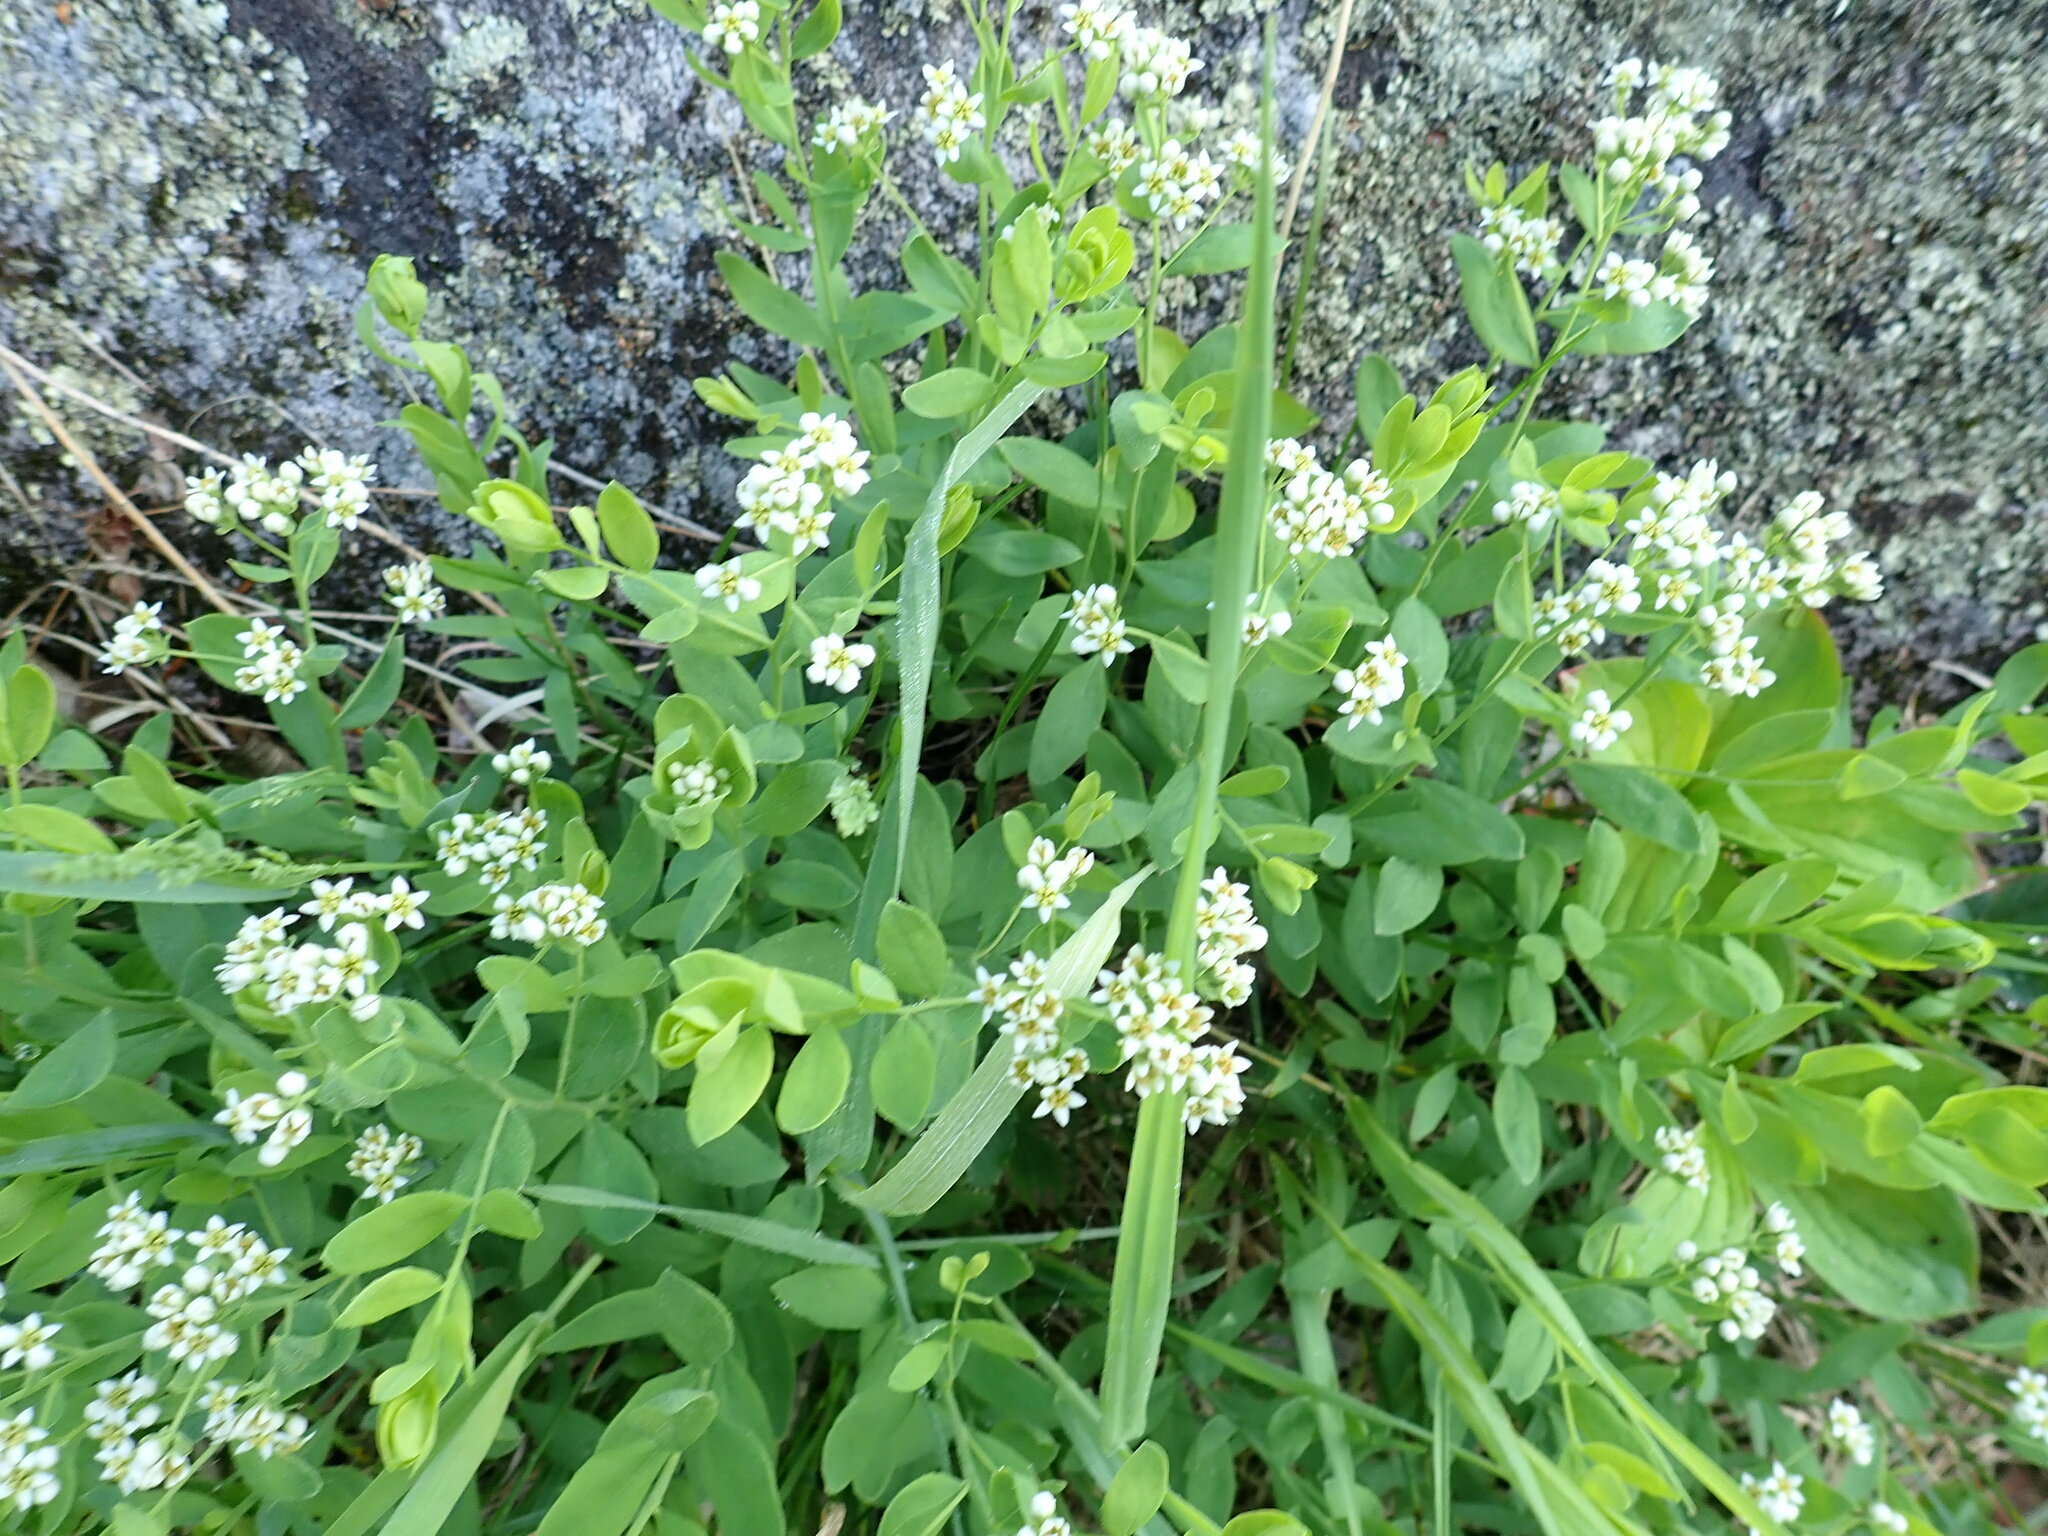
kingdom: Plantae
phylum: Tracheophyta
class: Magnoliopsida
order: Santalales
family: Comandraceae
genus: Comandra
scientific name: Comandra umbellata
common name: Bastard toadflax
